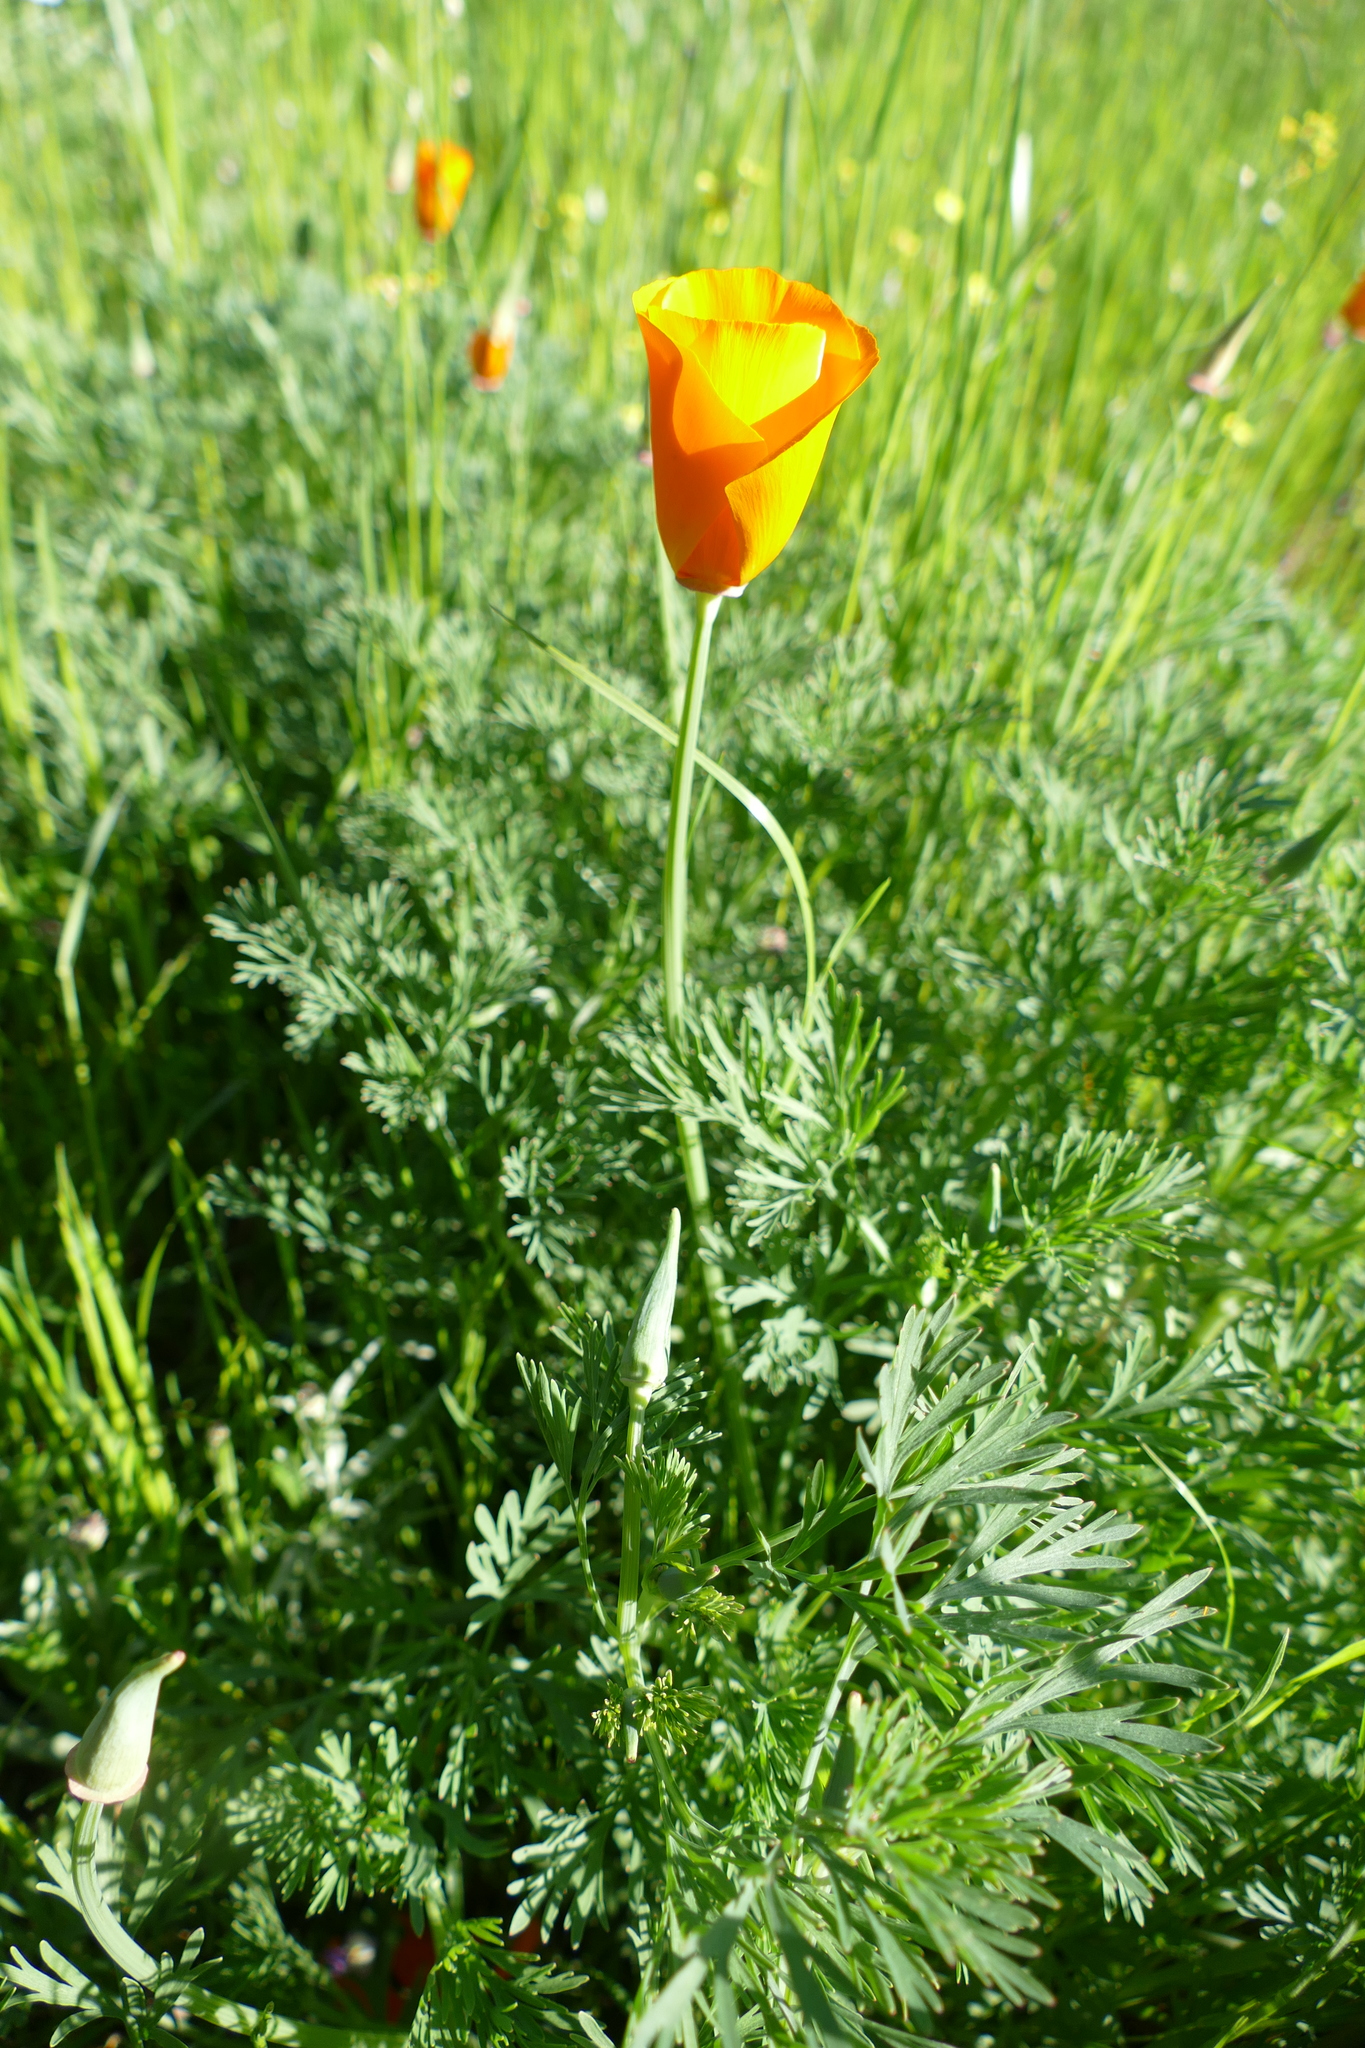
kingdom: Plantae
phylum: Tracheophyta
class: Magnoliopsida
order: Ranunculales
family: Papaveraceae
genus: Eschscholzia
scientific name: Eschscholzia californica
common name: California poppy
